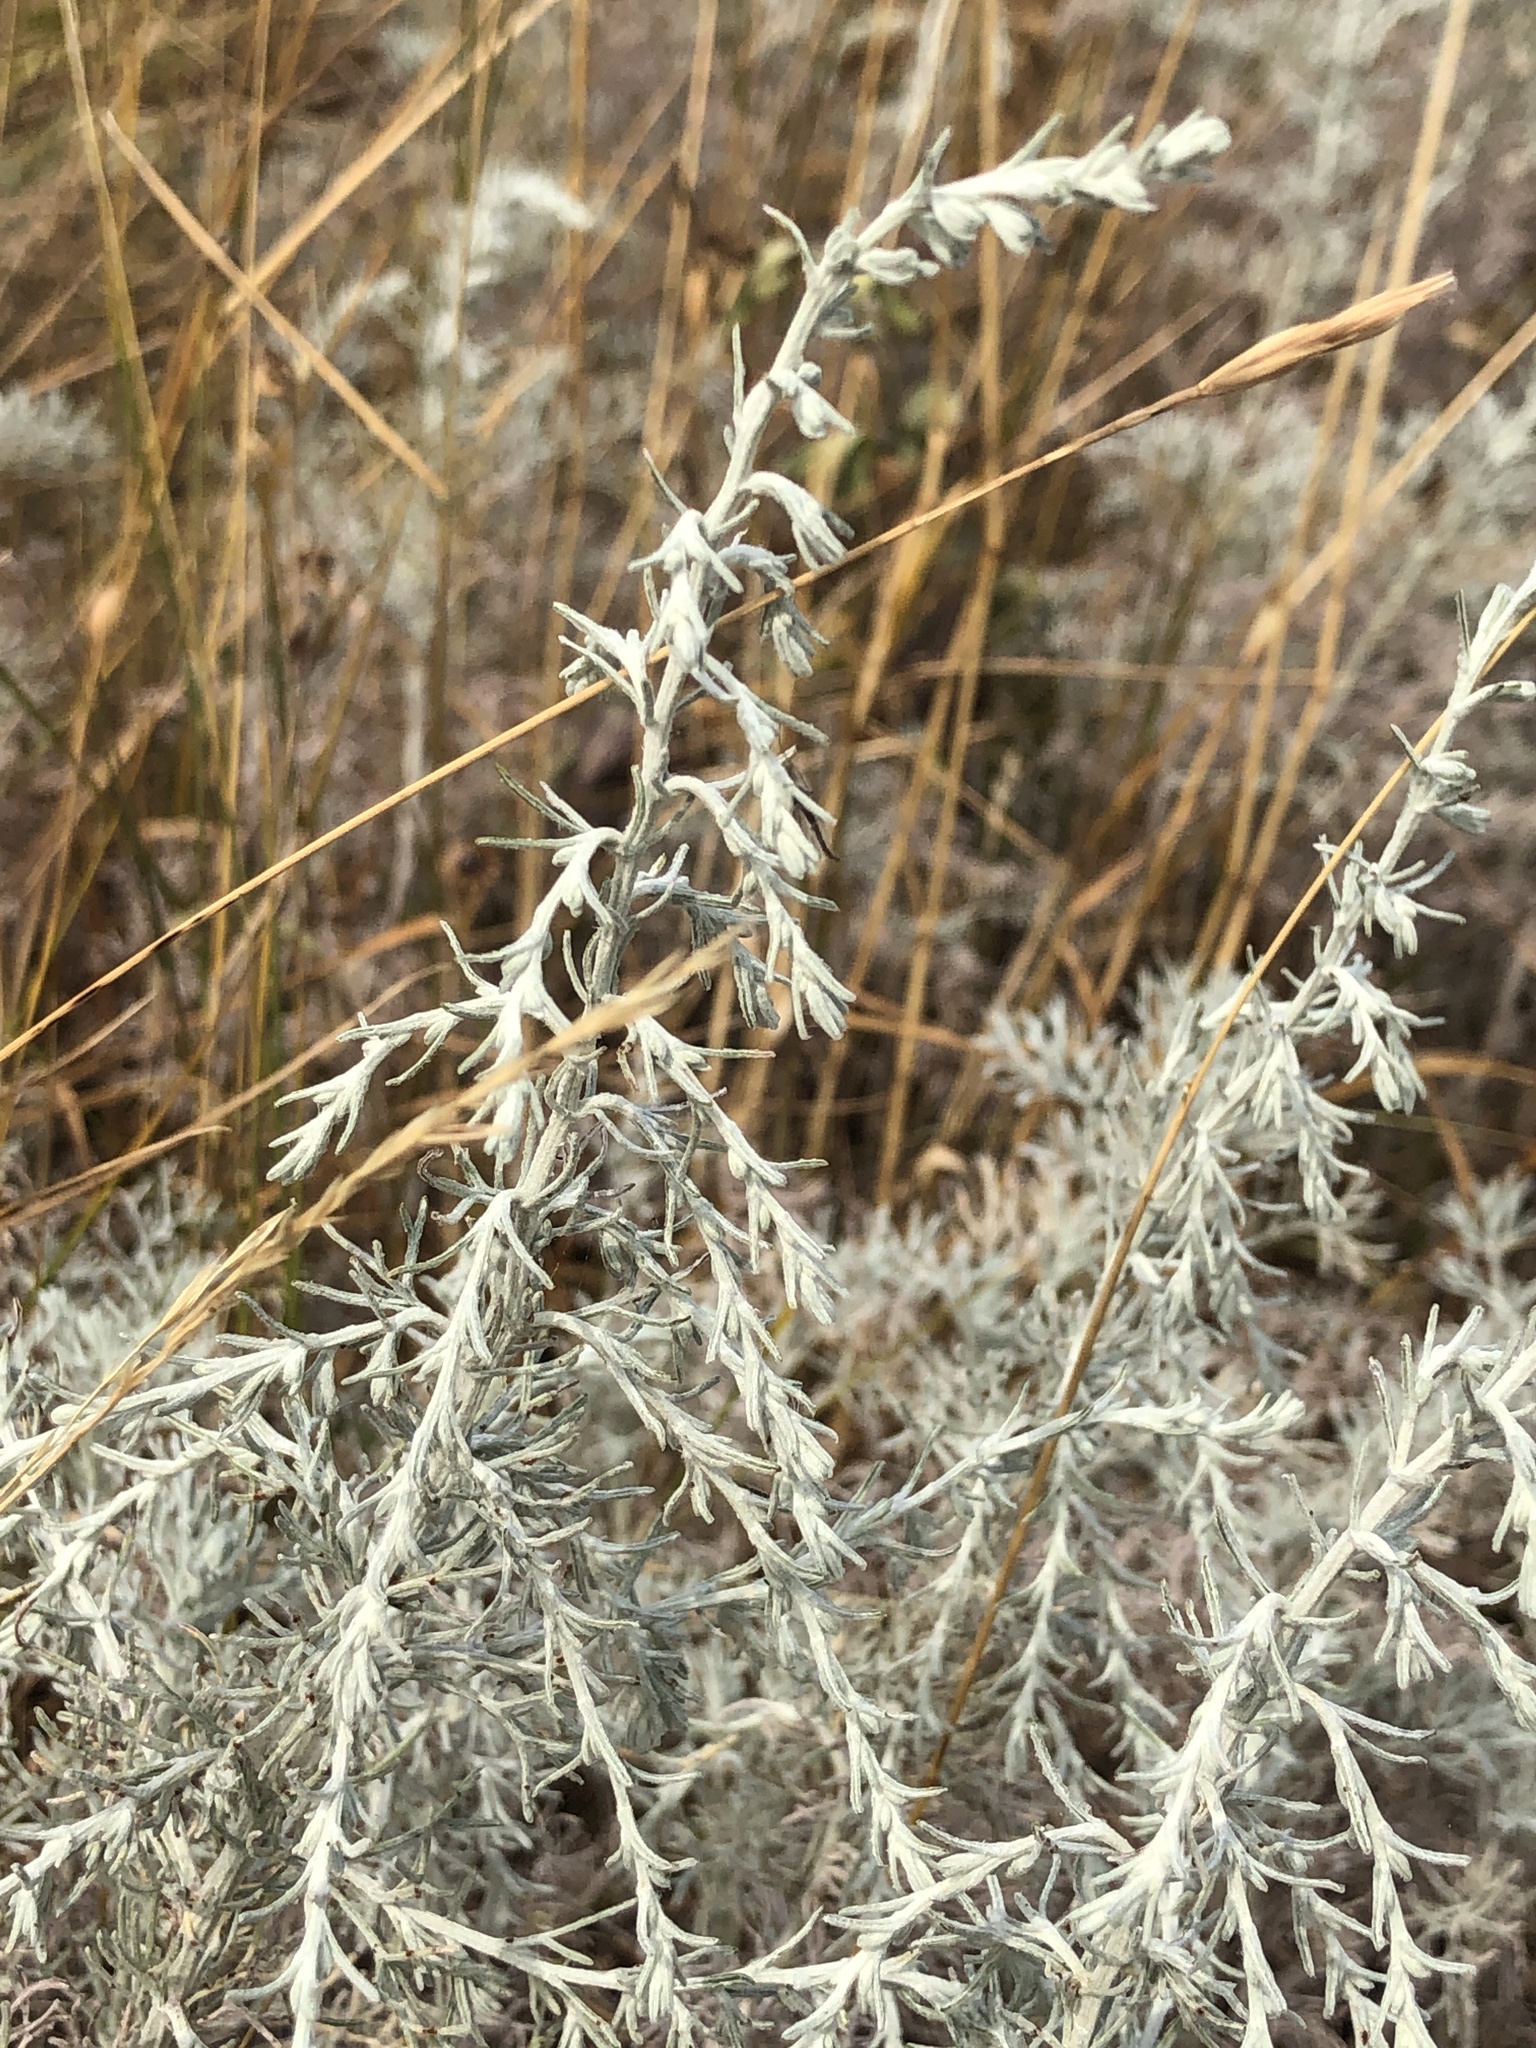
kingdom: Plantae
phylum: Tracheophyta
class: Magnoliopsida
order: Asterales
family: Asteraceae
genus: Artemisia
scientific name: Artemisia maritima
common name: Wormseed
